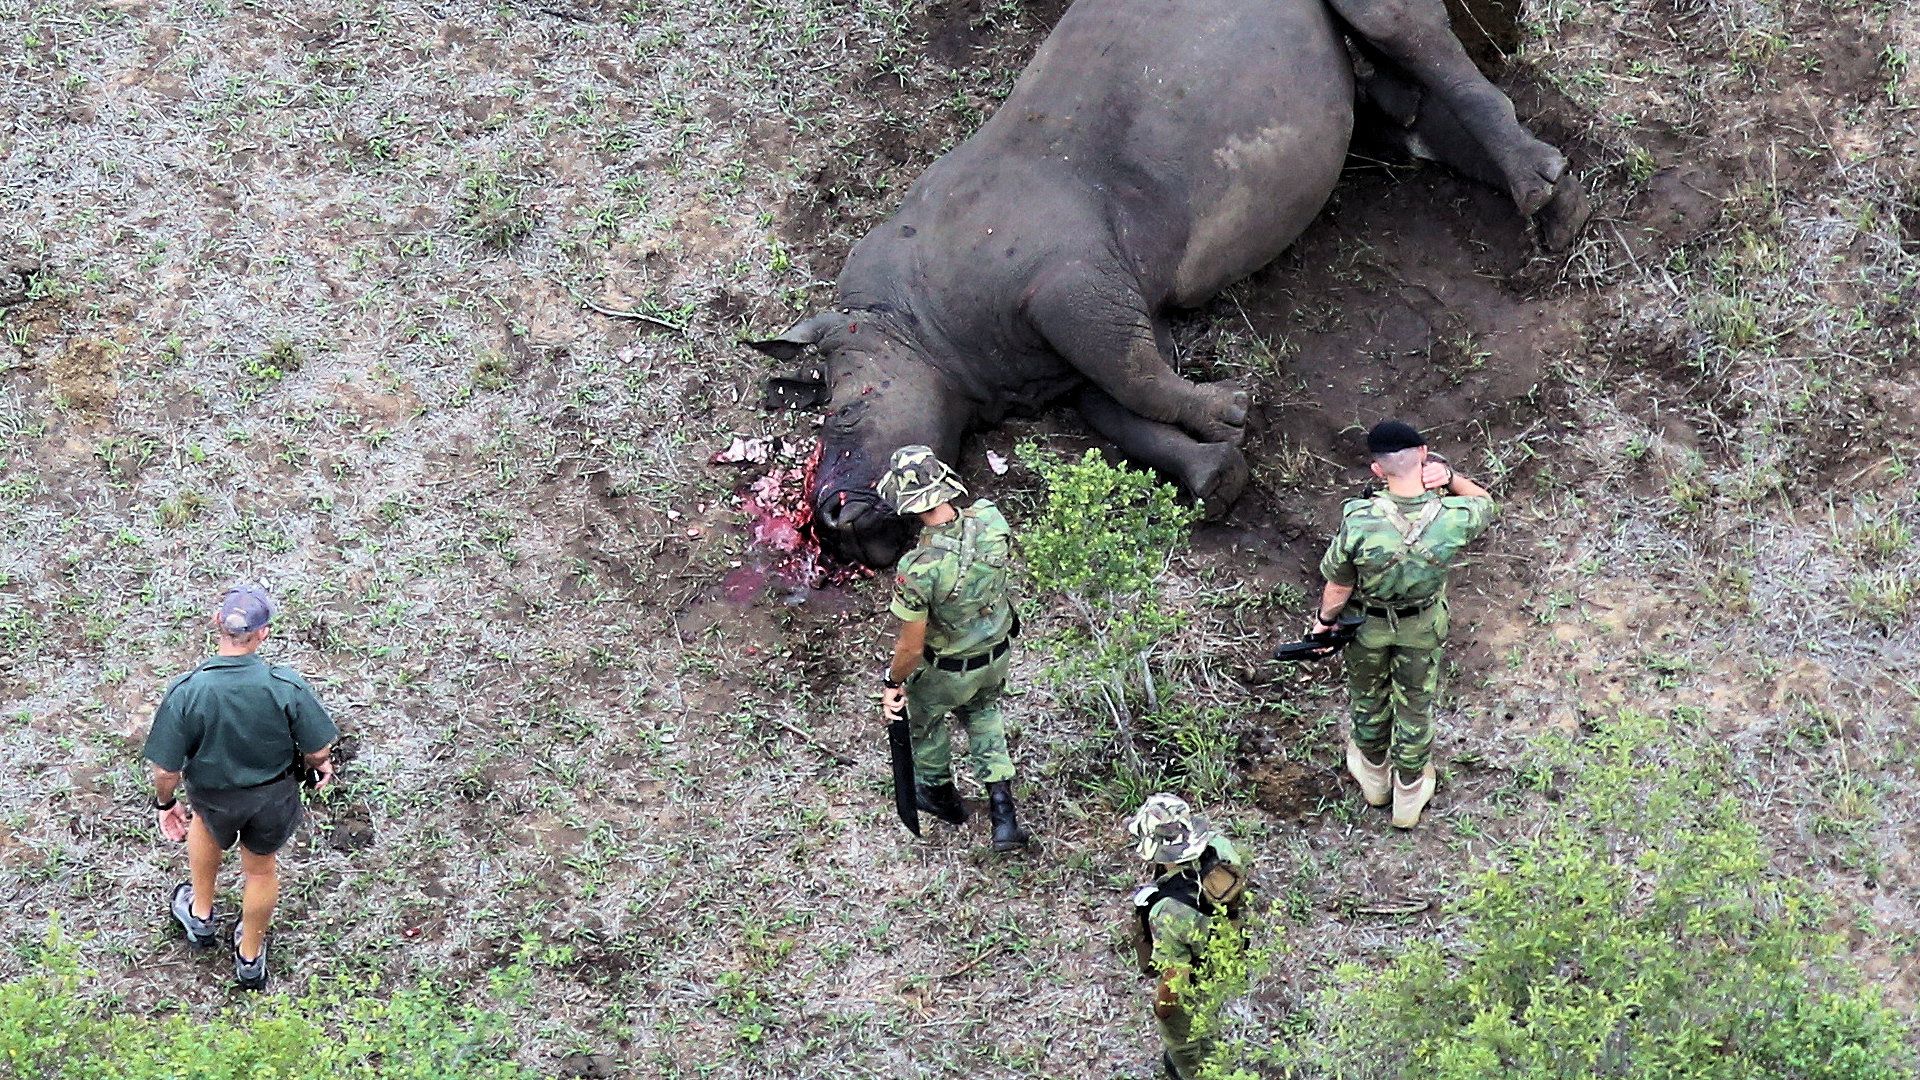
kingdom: Animalia
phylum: Chordata
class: Mammalia
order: Perissodactyla
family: Rhinocerotidae
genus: Ceratotherium
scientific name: Ceratotherium simum
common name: White rhinoceros
